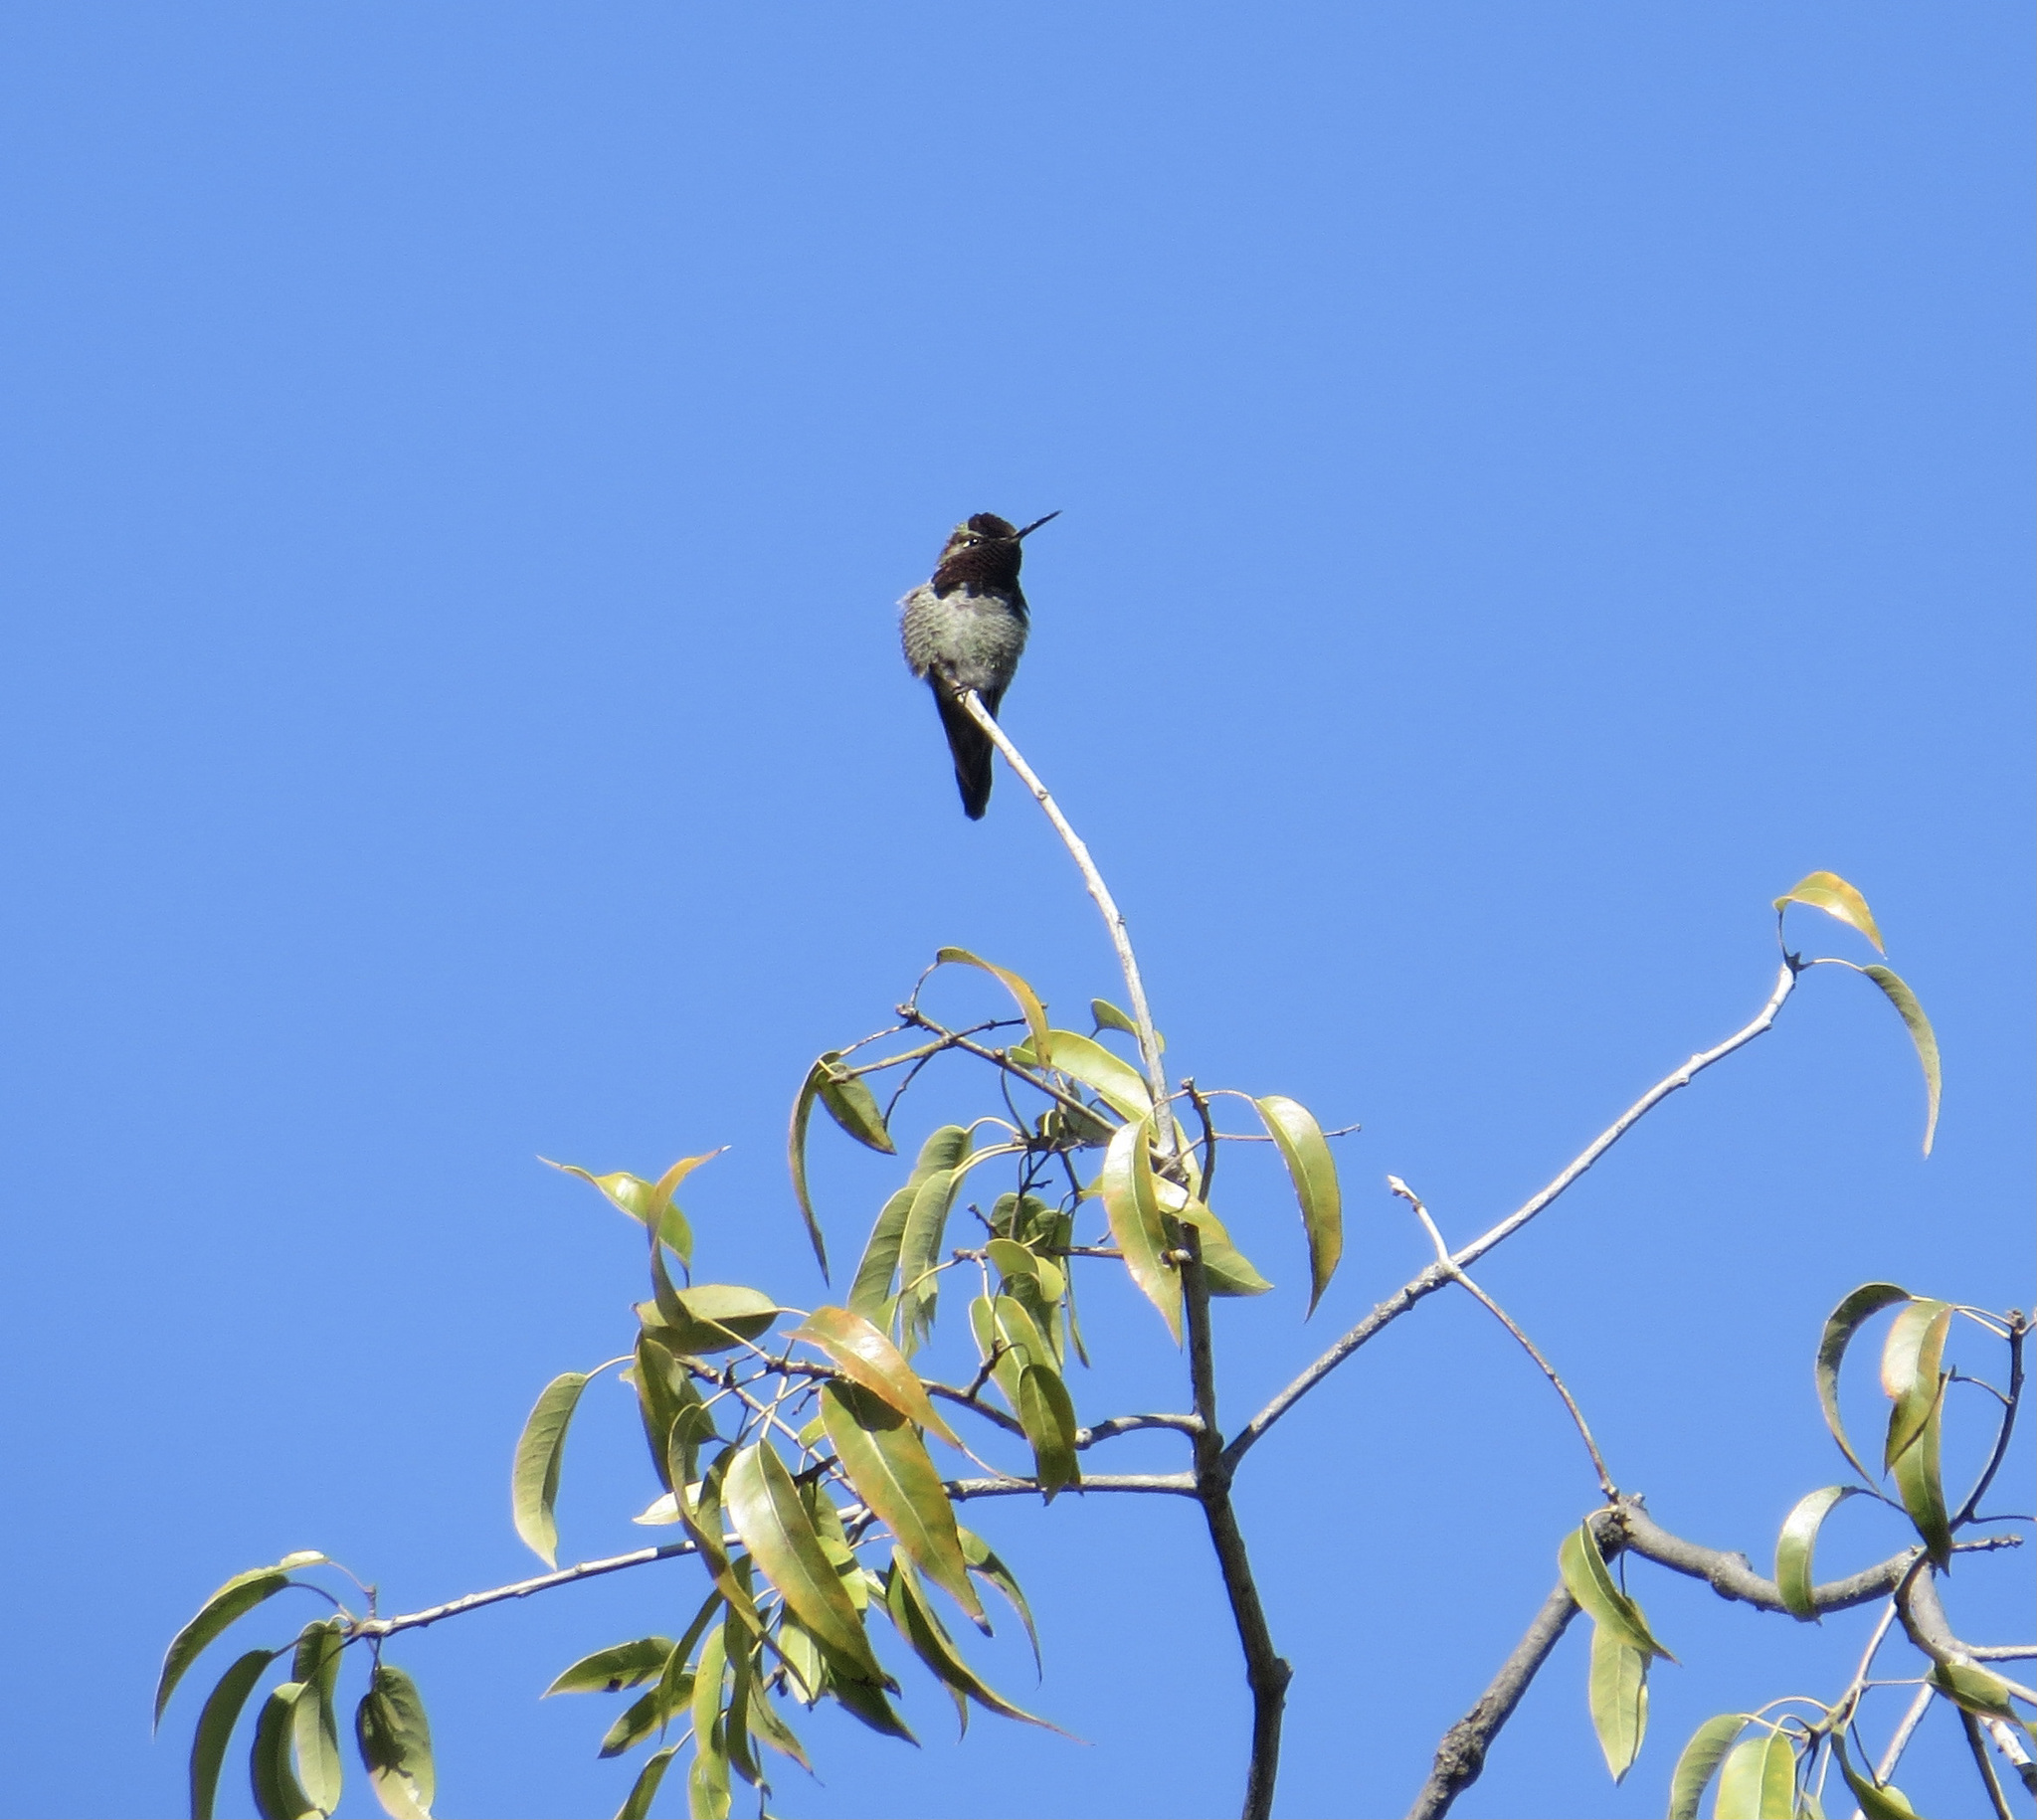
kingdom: Animalia
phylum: Chordata
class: Aves
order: Apodiformes
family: Trochilidae
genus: Calypte
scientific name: Calypte anna
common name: Anna's hummingbird
